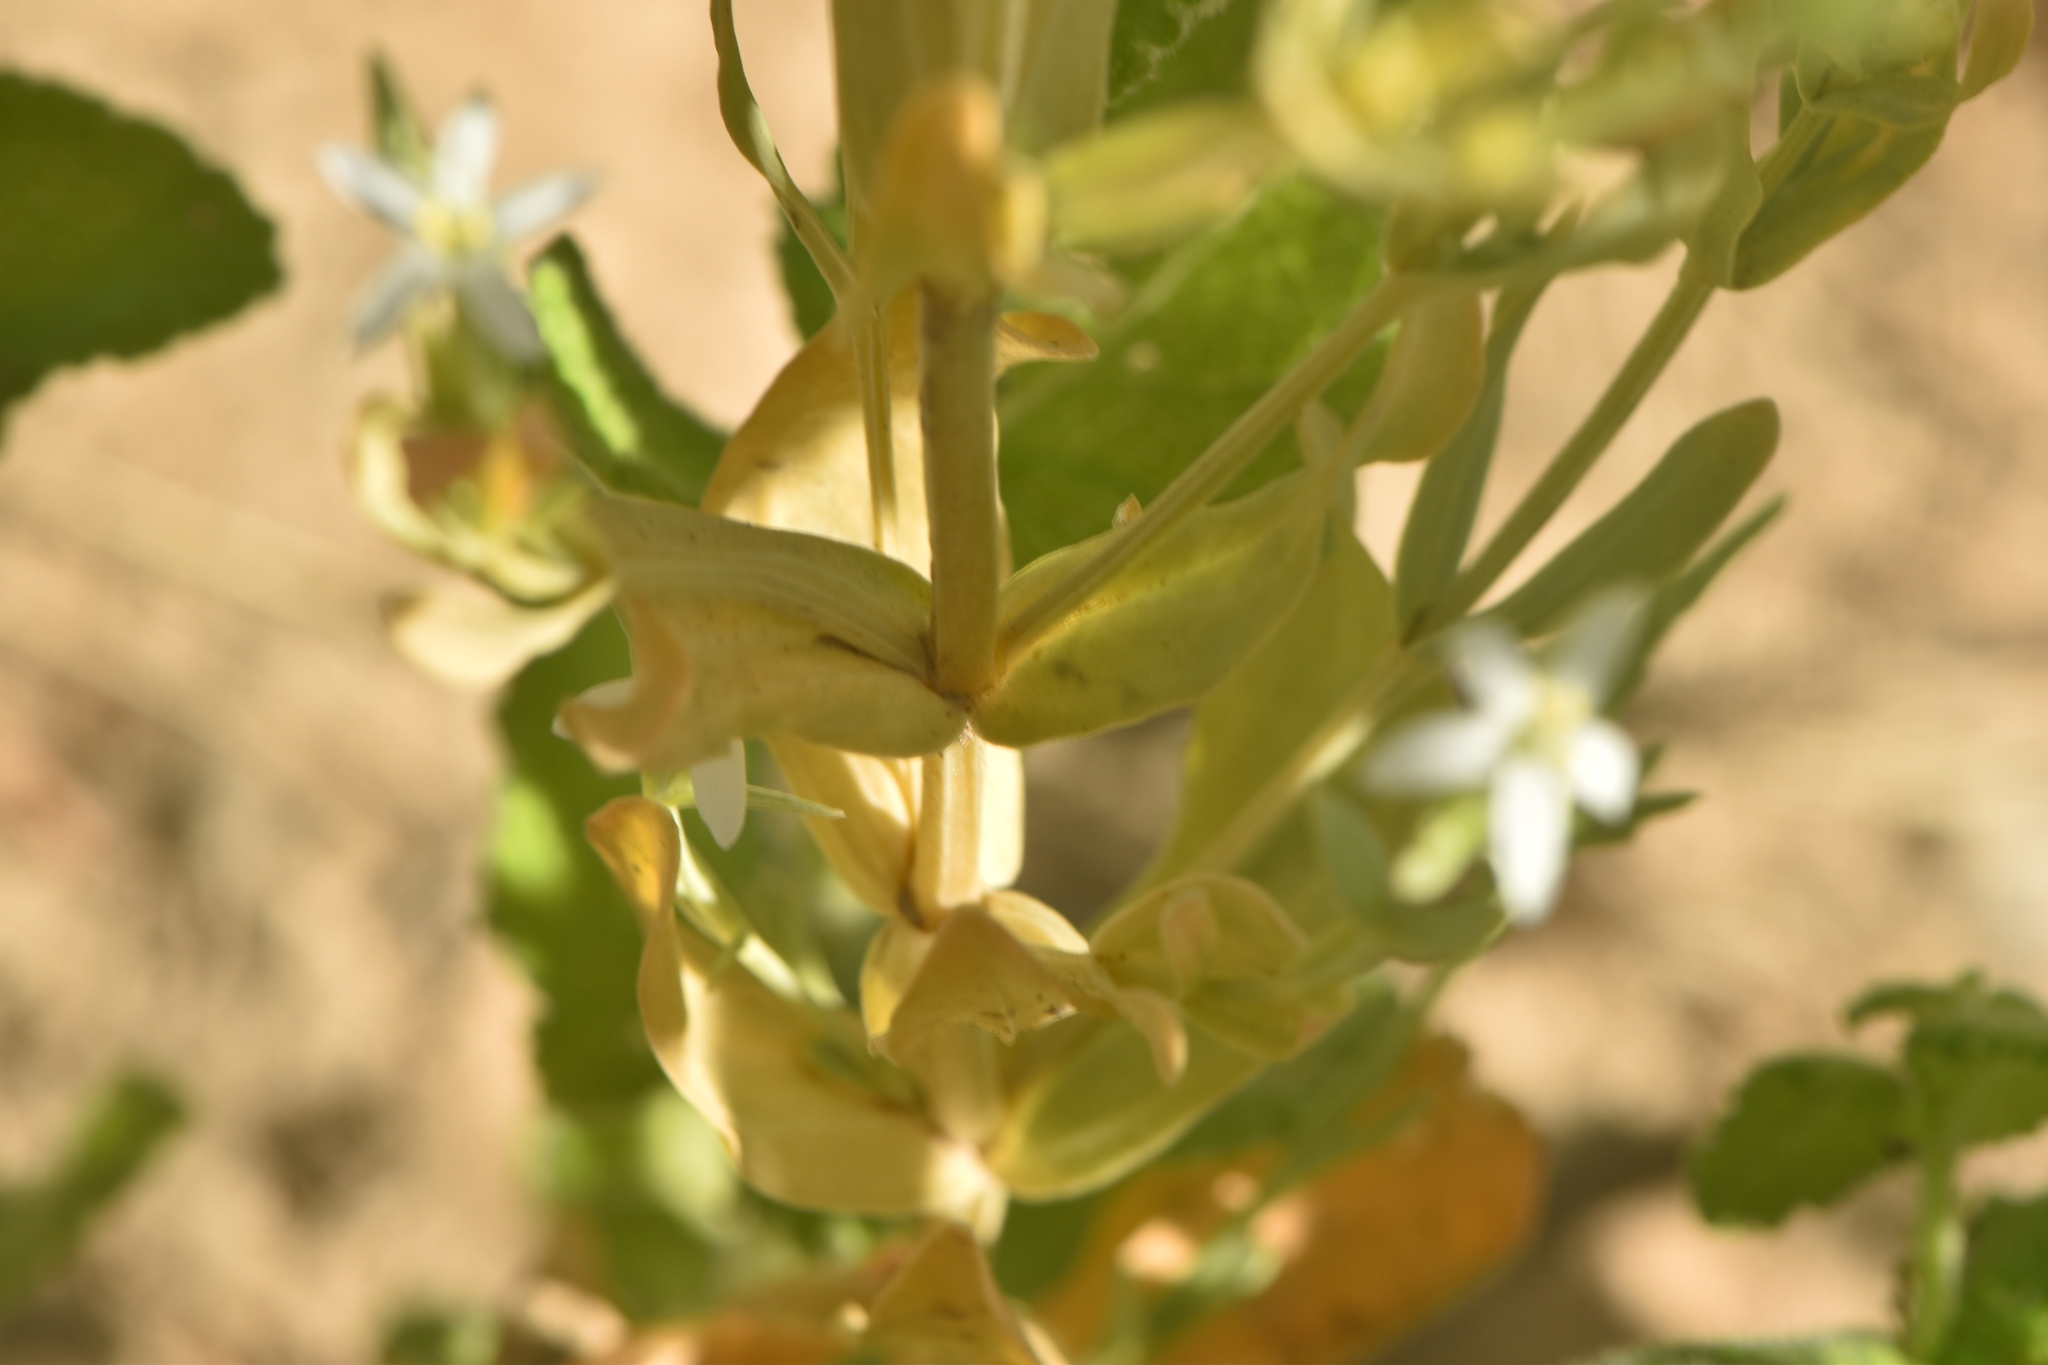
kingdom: Plantae
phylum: Tracheophyta
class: Magnoliopsida
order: Gentianales
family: Gentianaceae
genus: Schenkia
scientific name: Schenkia spicata
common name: Spiked centaury
